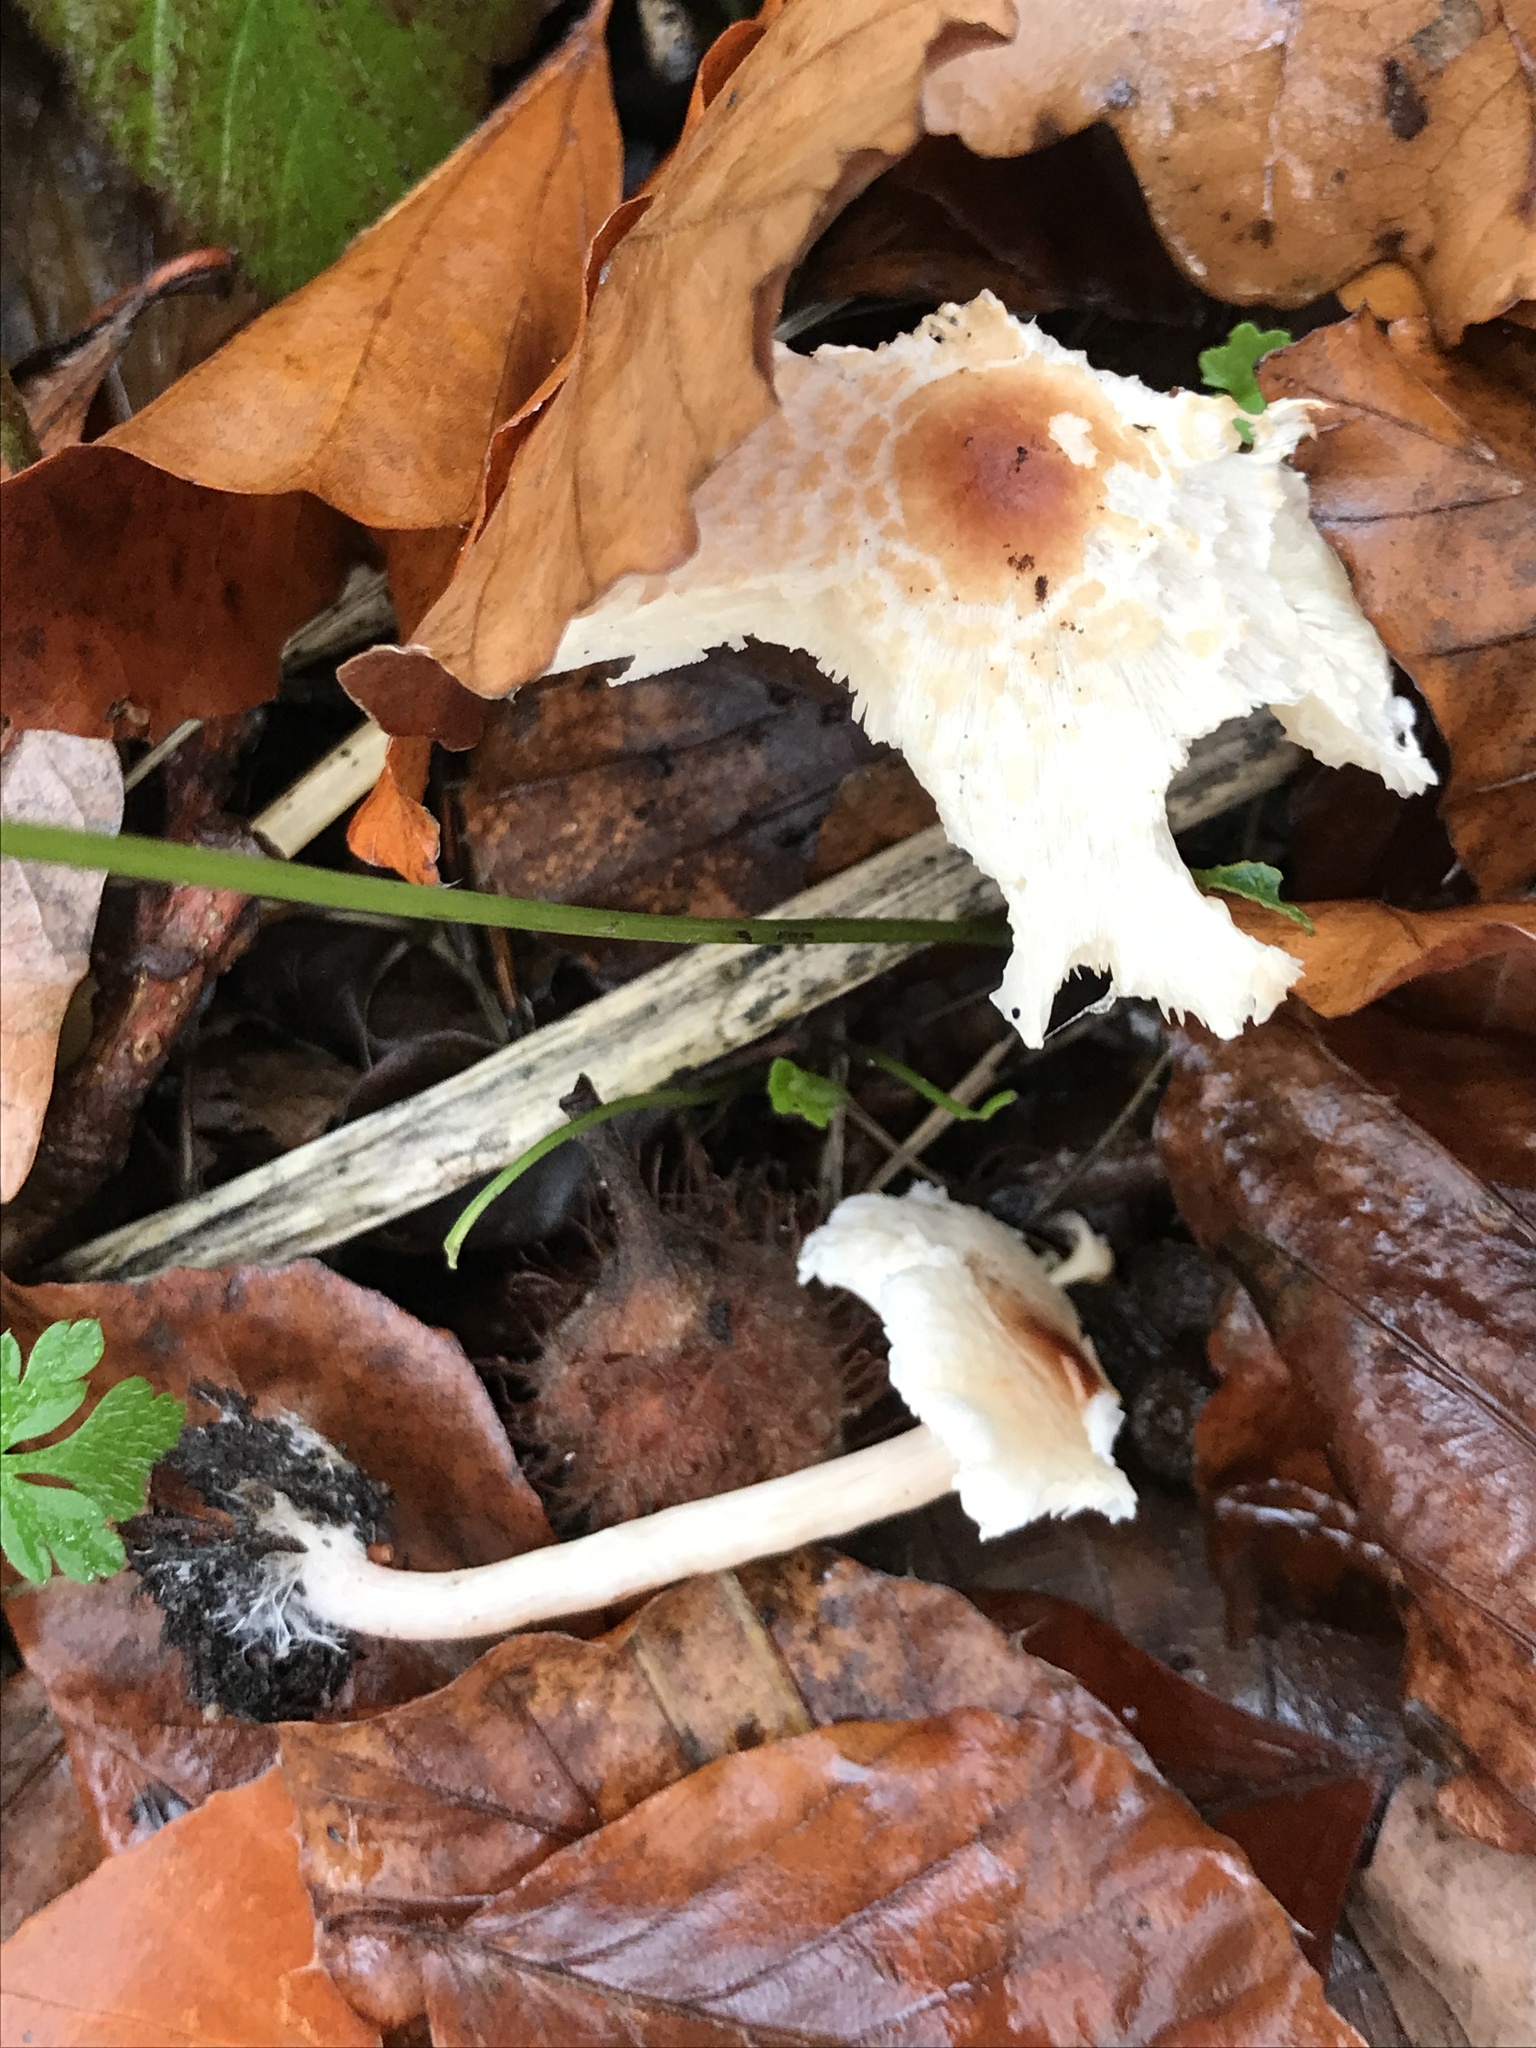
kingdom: Fungi
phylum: Basidiomycota
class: Agaricomycetes
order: Agaricales
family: Agaricaceae
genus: Lepiota
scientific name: Lepiota cristata
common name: Stinking dapperling
